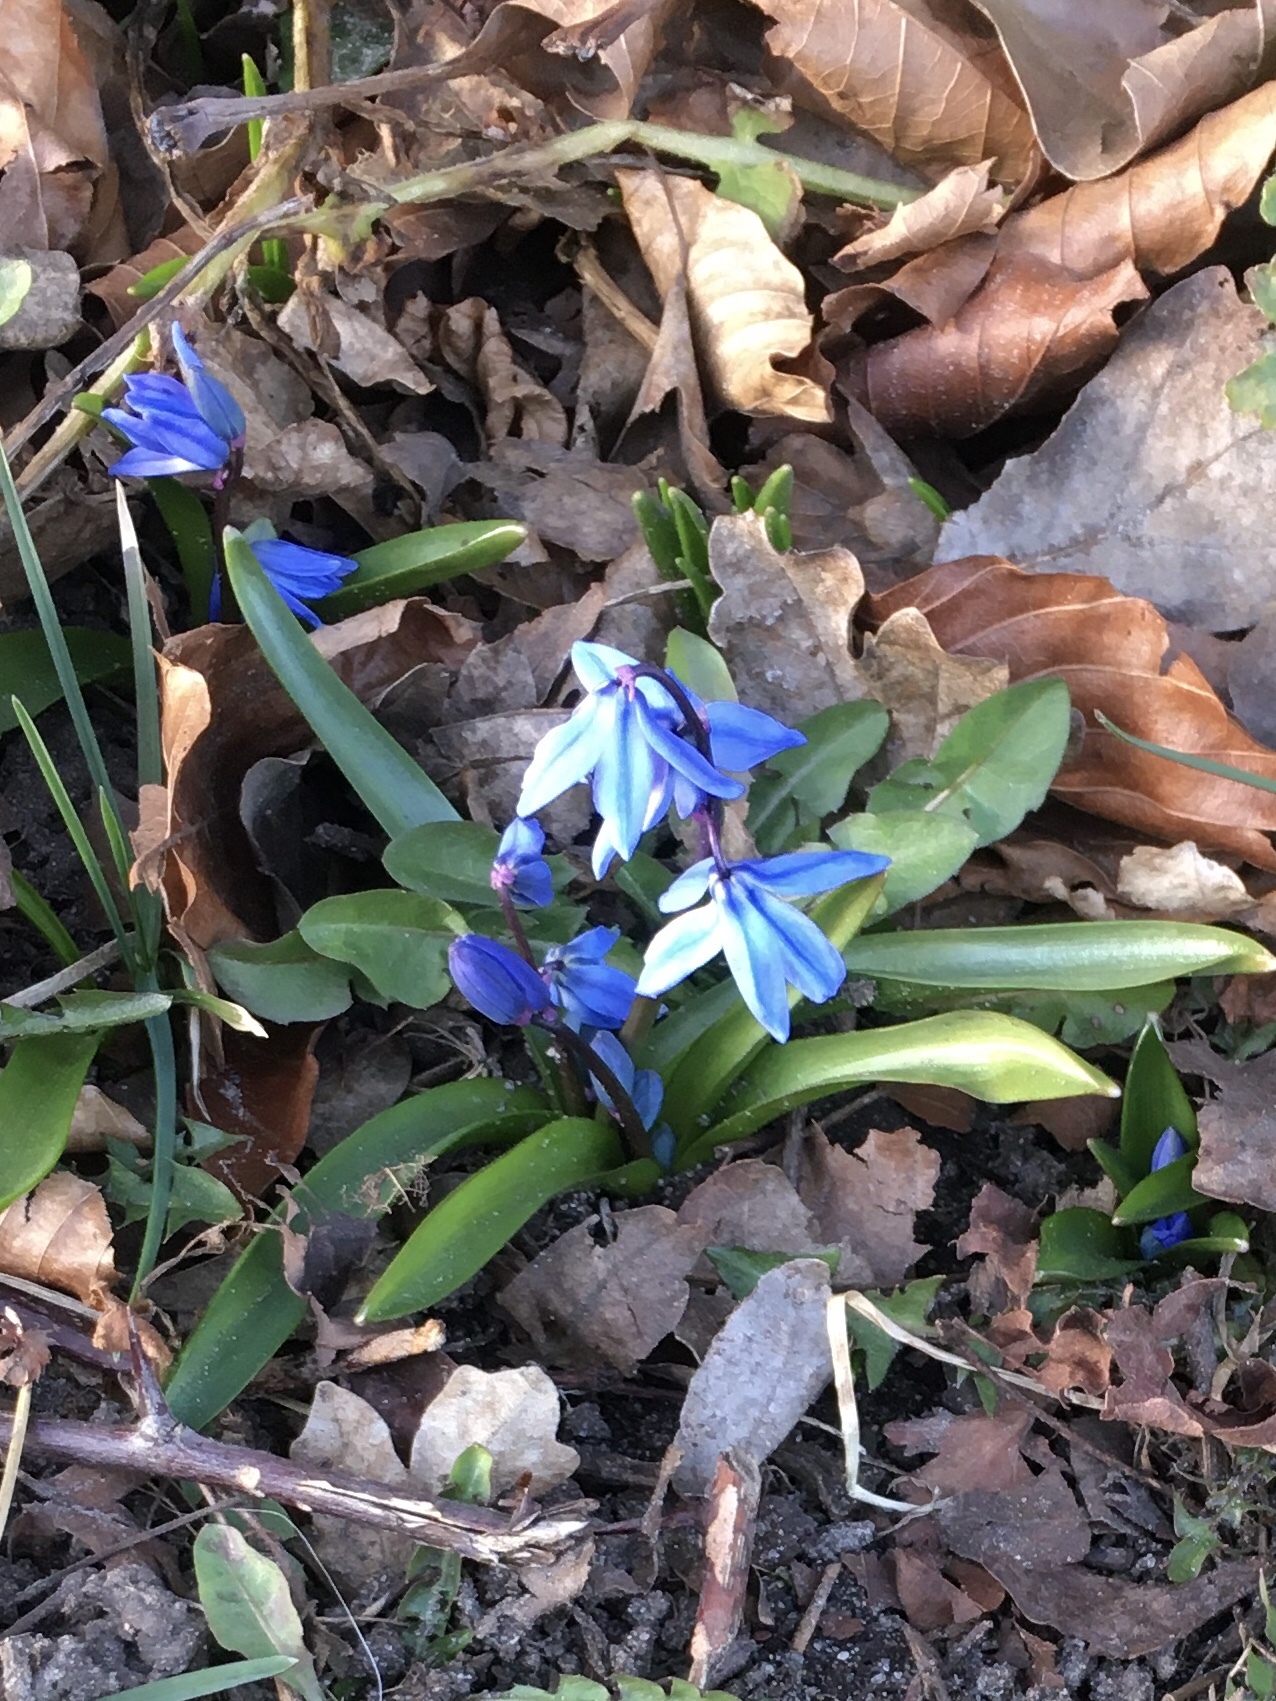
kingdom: Plantae
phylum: Tracheophyta
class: Liliopsida
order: Asparagales
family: Asparagaceae
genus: Scilla
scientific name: Scilla siberica
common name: Siberian squill
